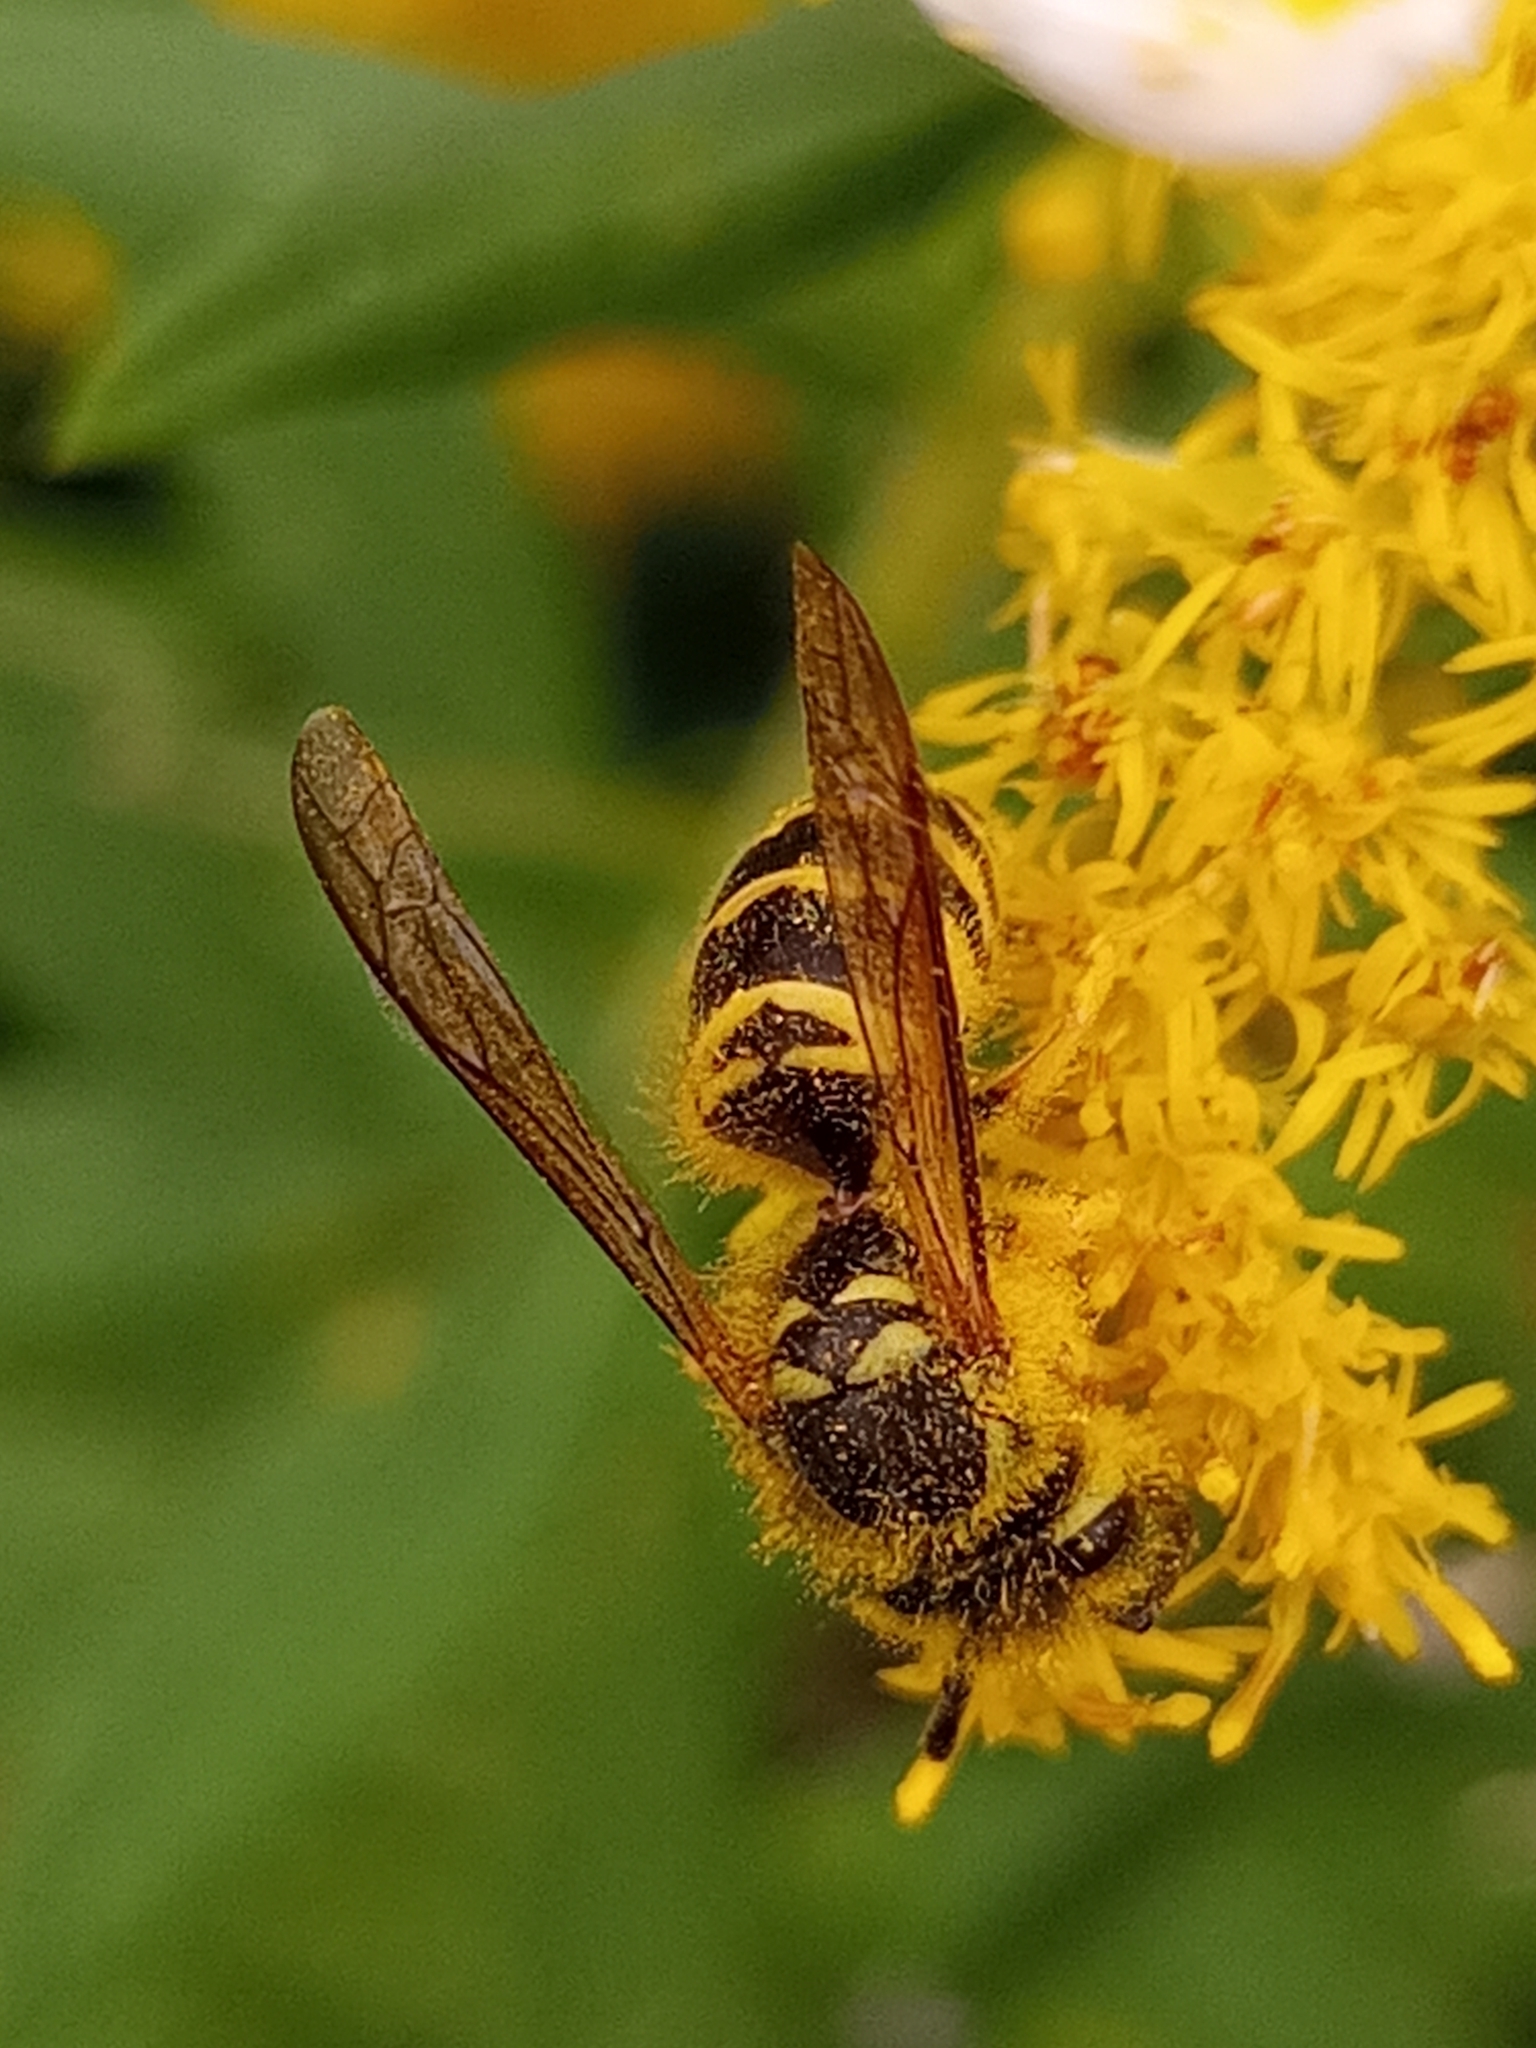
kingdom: Animalia
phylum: Arthropoda
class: Insecta
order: Hymenoptera
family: Vespidae
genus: Vespula
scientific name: Vespula maculifrons
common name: Eastern yellowjacket
